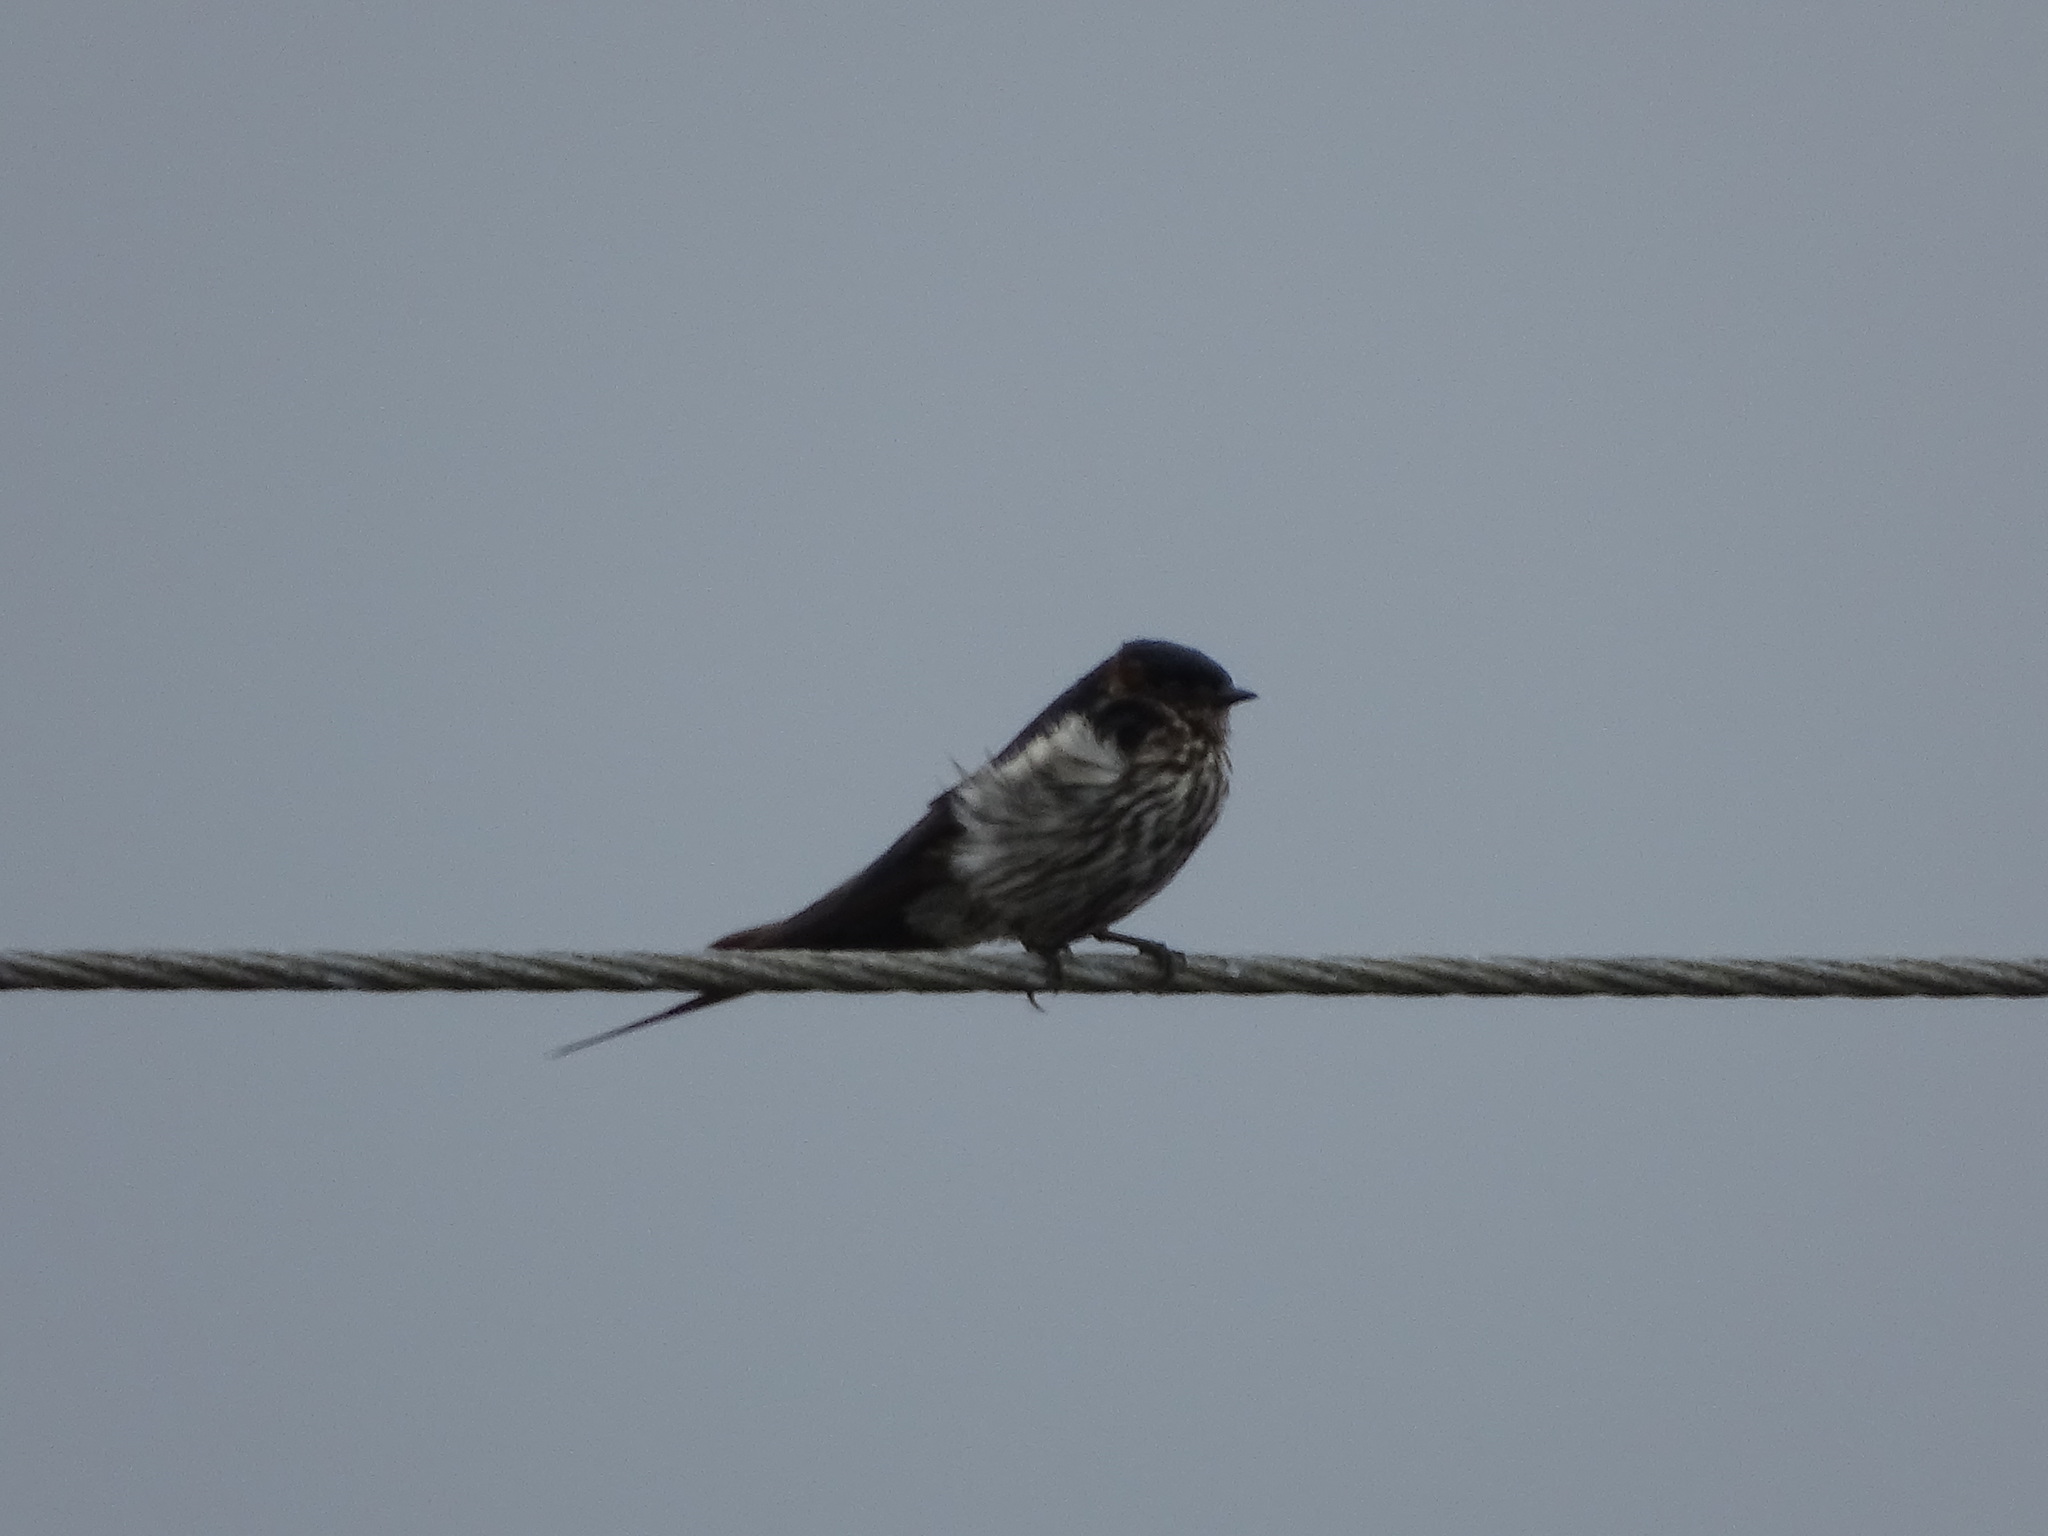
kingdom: Animalia
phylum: Chordata
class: Aves
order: Passeriformes
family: Hirundinidae
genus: Cecropis
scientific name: Cecropis striolata
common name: Striated swallow
